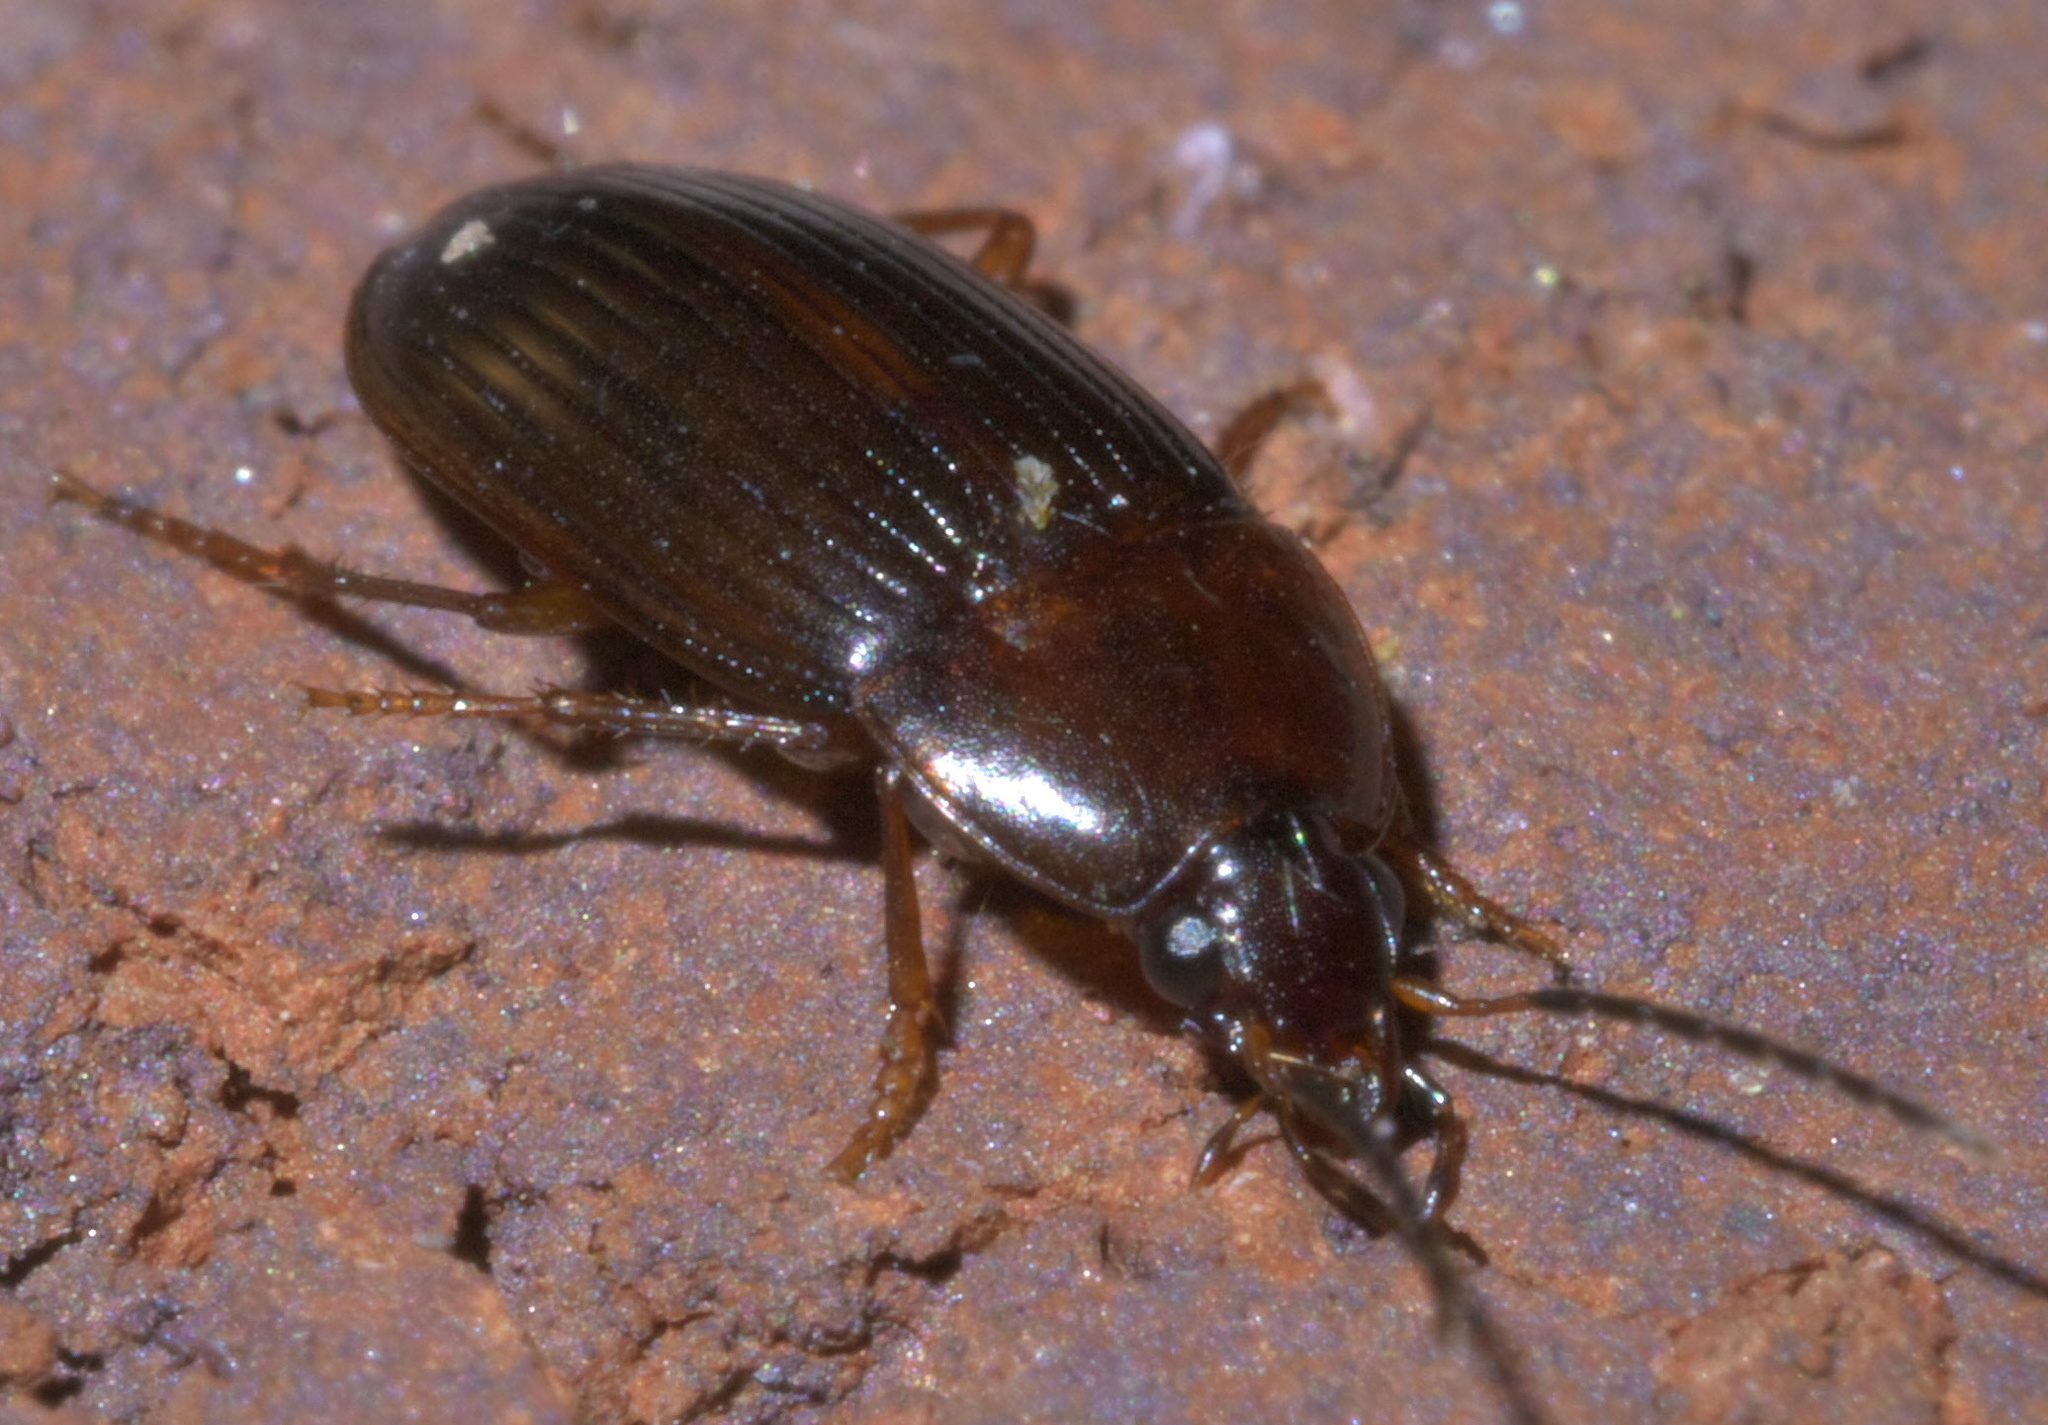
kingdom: Animalia
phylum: Arthropoda
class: Insecta
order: Coleoptera
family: Carabidae
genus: Anatrichis
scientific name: Anatrichis minuta
